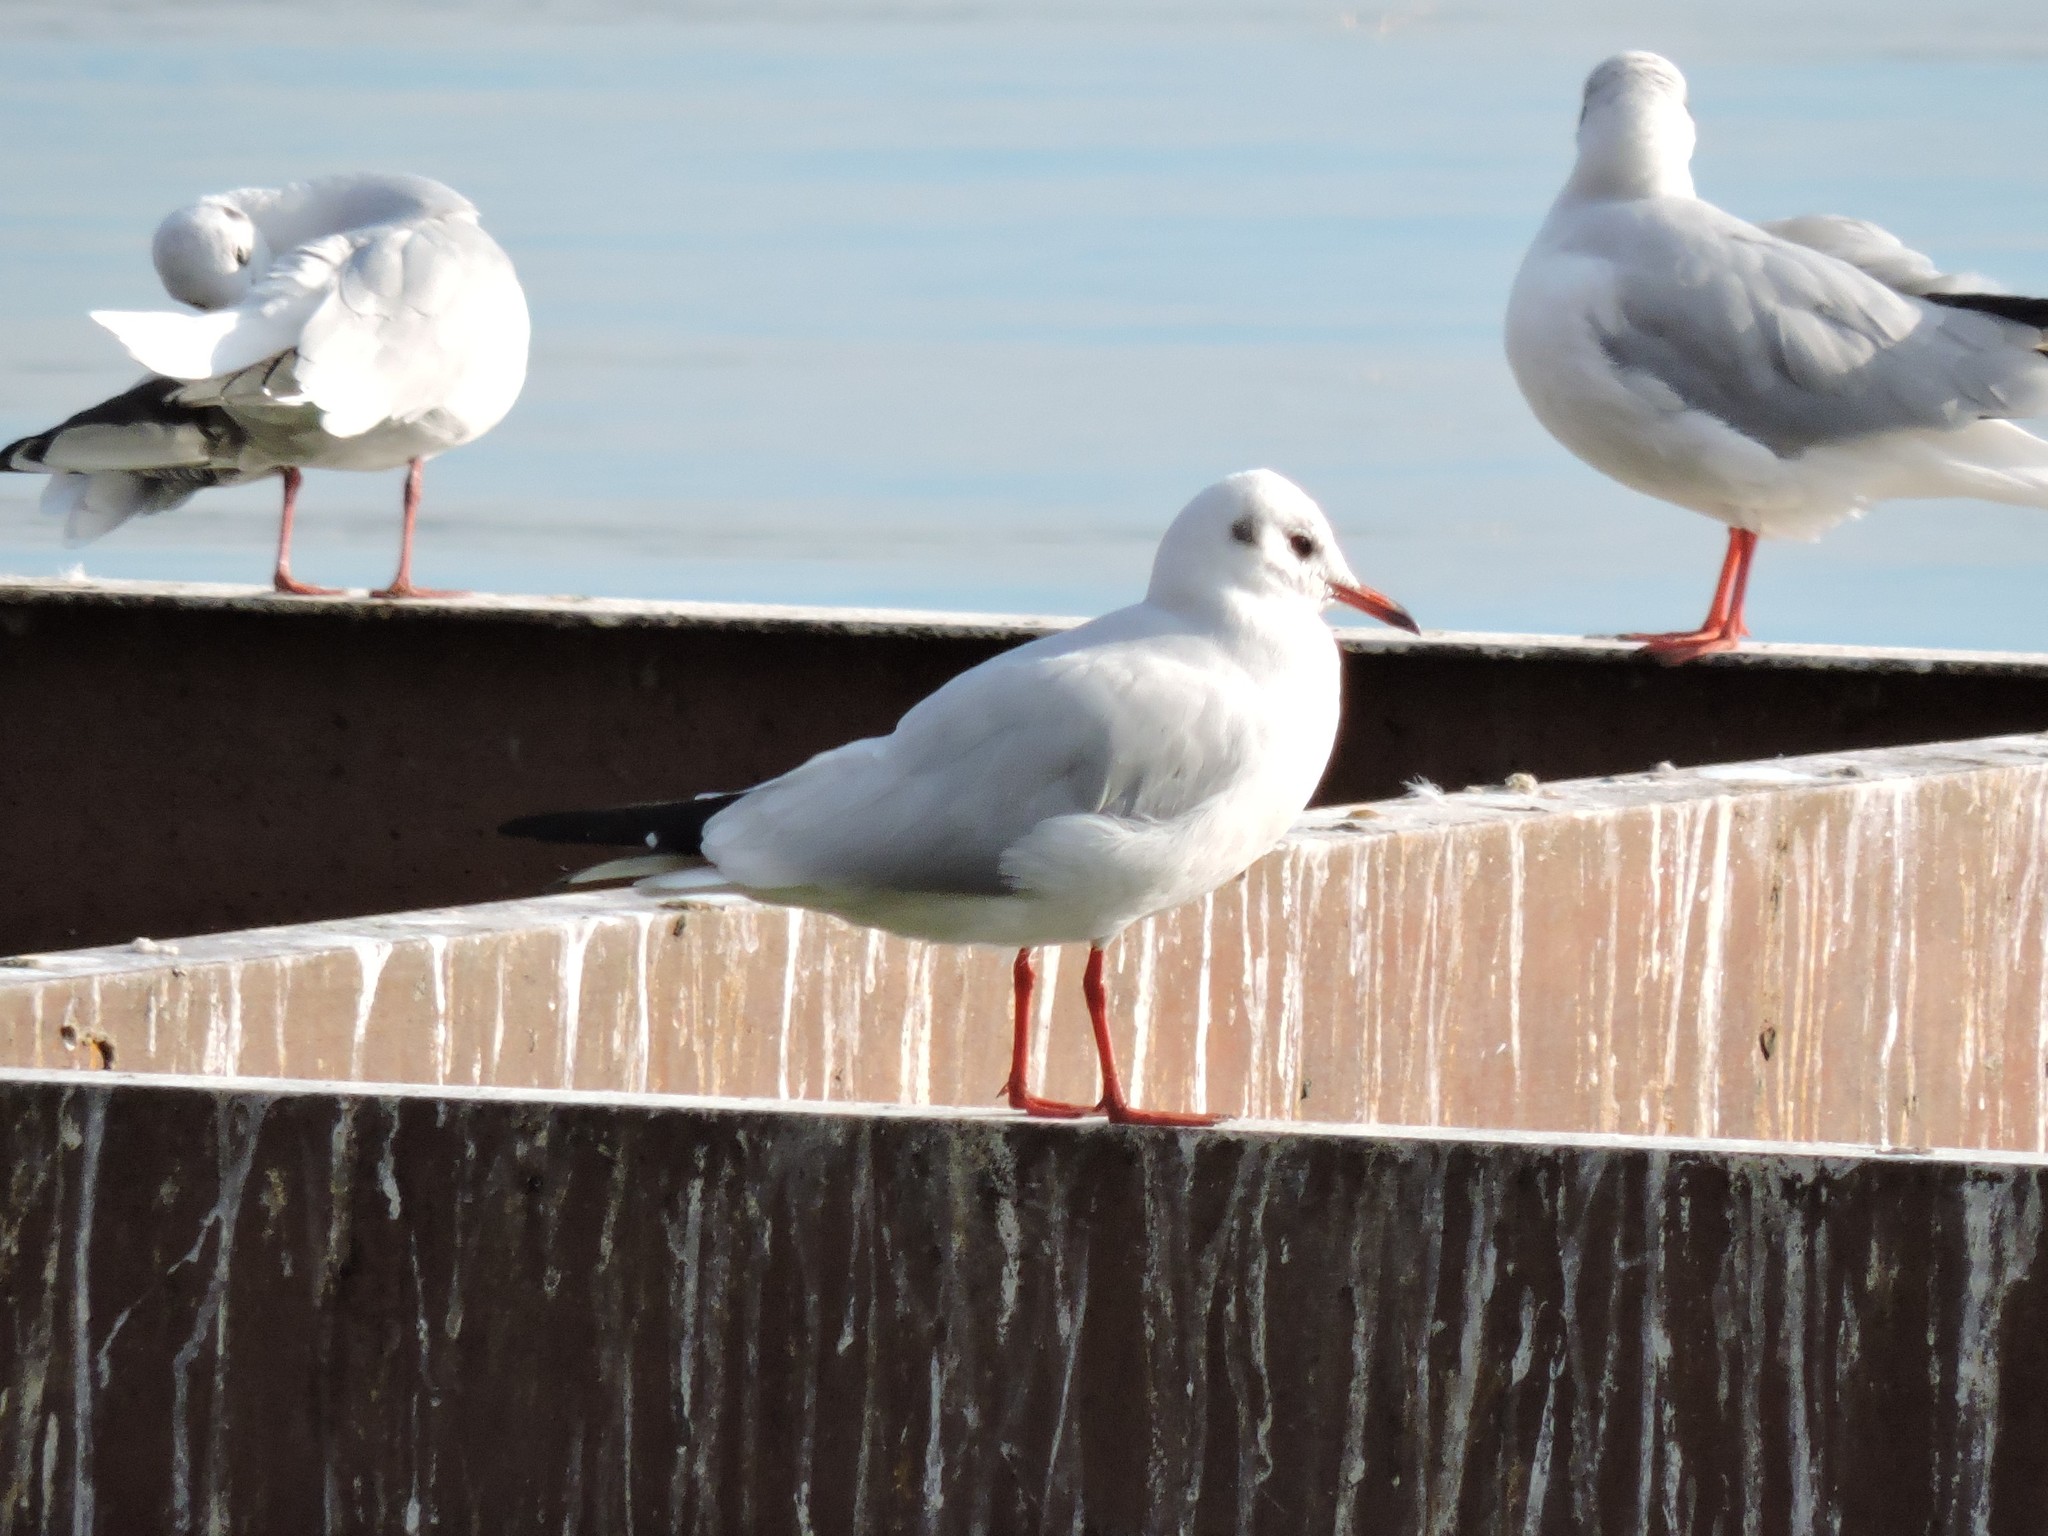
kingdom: Animalia
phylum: Chordata
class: Aves
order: Charadriiformes
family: Laridae
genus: Chroicocephalus
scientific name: Chroicocephalus ridibundus
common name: Black-headed gull
